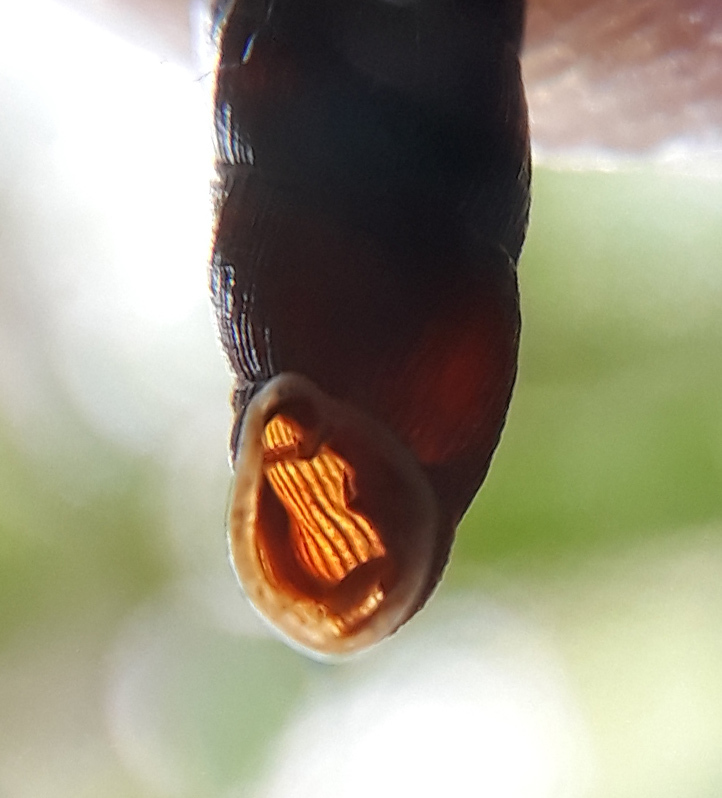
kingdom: Animalia
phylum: Mollusca
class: Gastropoda
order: Stylommatophora
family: Clausiliidae
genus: Clausilia
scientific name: Clausilia bidentata
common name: Two-toothed door snail
